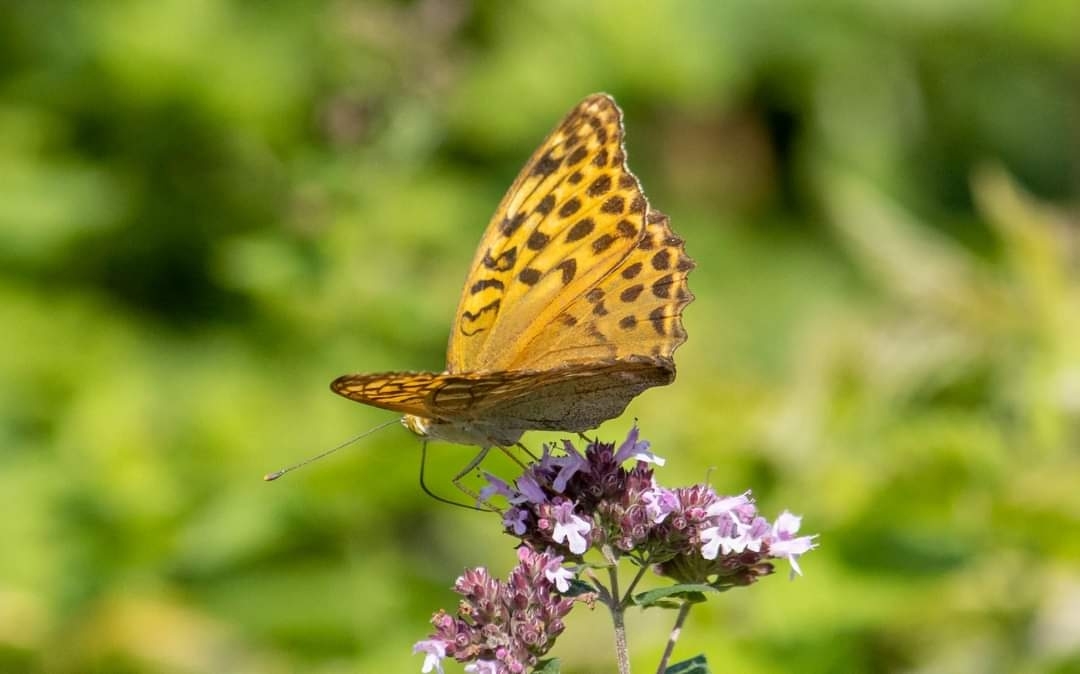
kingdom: Animalia
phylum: Arthropoda
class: Insecta
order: Lepidoptera
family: Nymphalidae
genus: Argynnis
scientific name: Argynnis paphia
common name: Silver-washed fritillary
